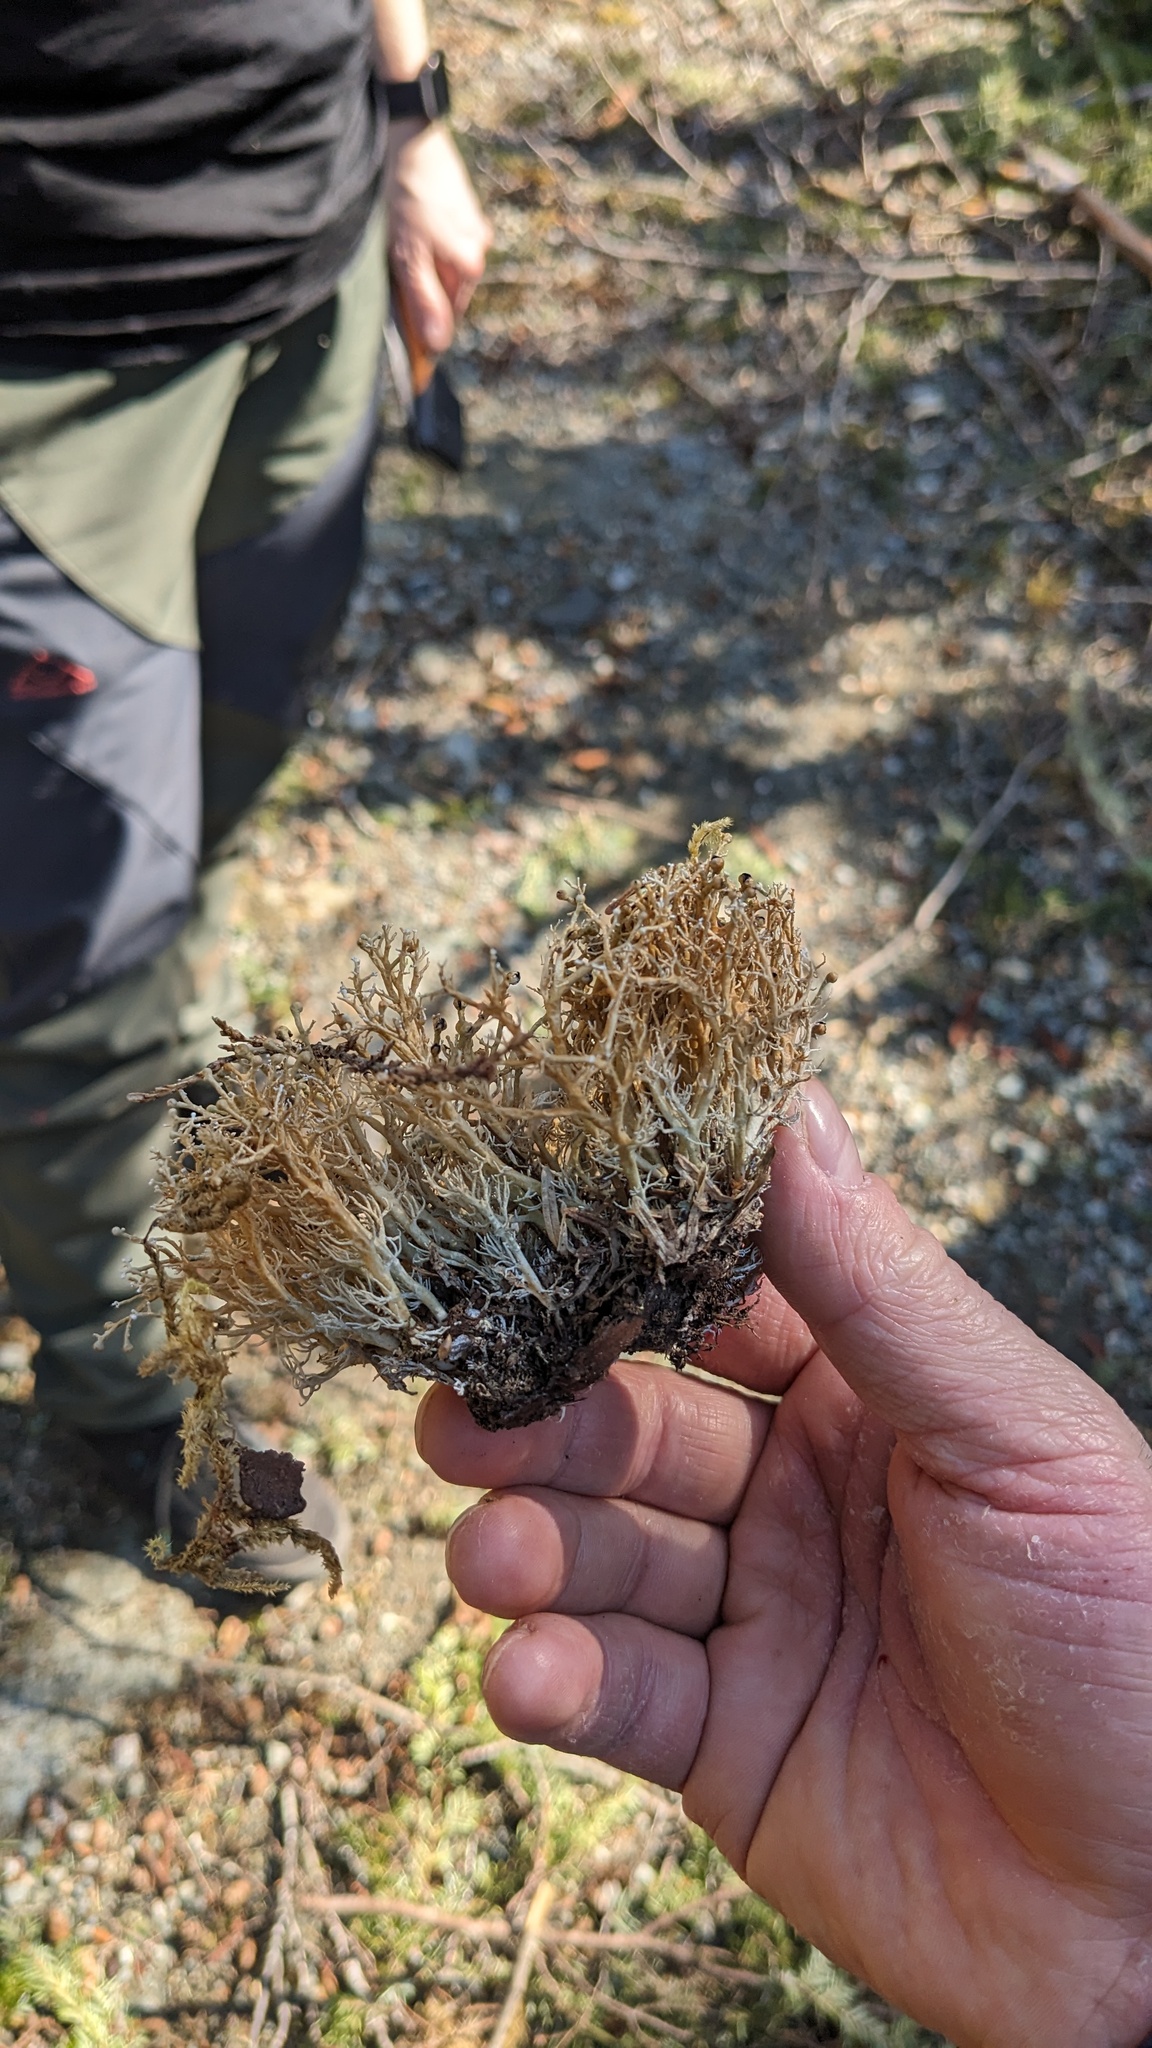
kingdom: Fungi
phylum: Ascomycota
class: Lecanoromycetes
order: Lecanorales
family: Sphaerophoraceae
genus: Sphaerophorus
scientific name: Sphaerophorus venerabilis
